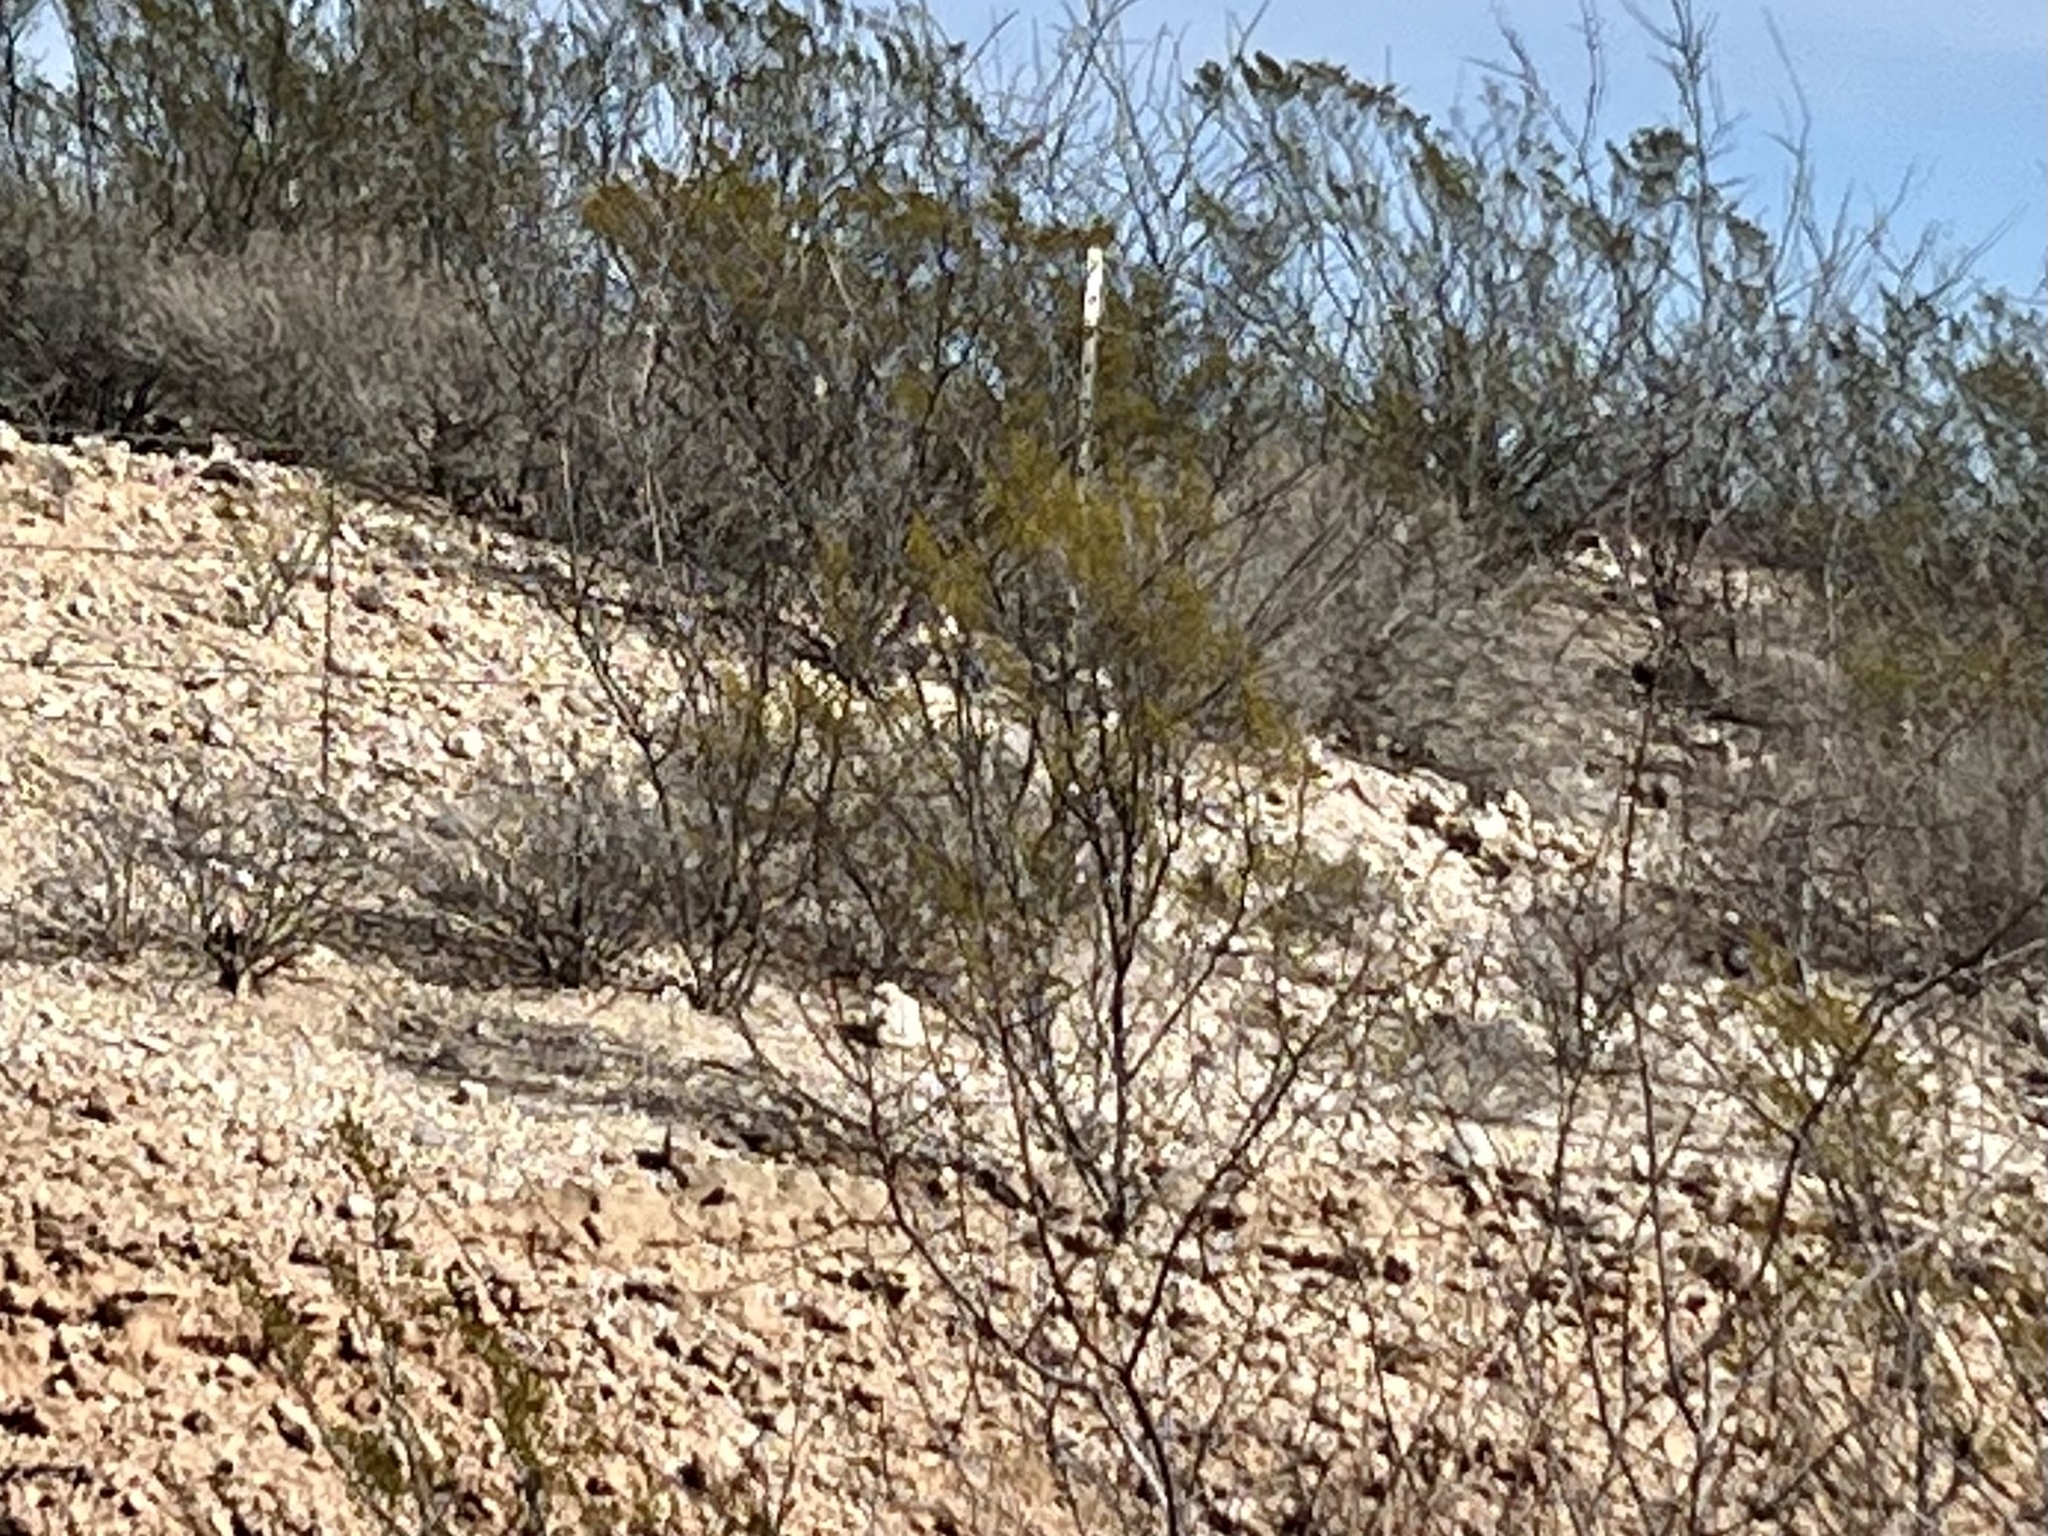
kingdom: Plantae
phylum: Tracheophyta
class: Magnoliopsida
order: Zygophyllales
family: Zygophyllaceae
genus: Larrea
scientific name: Larrea tridentata
